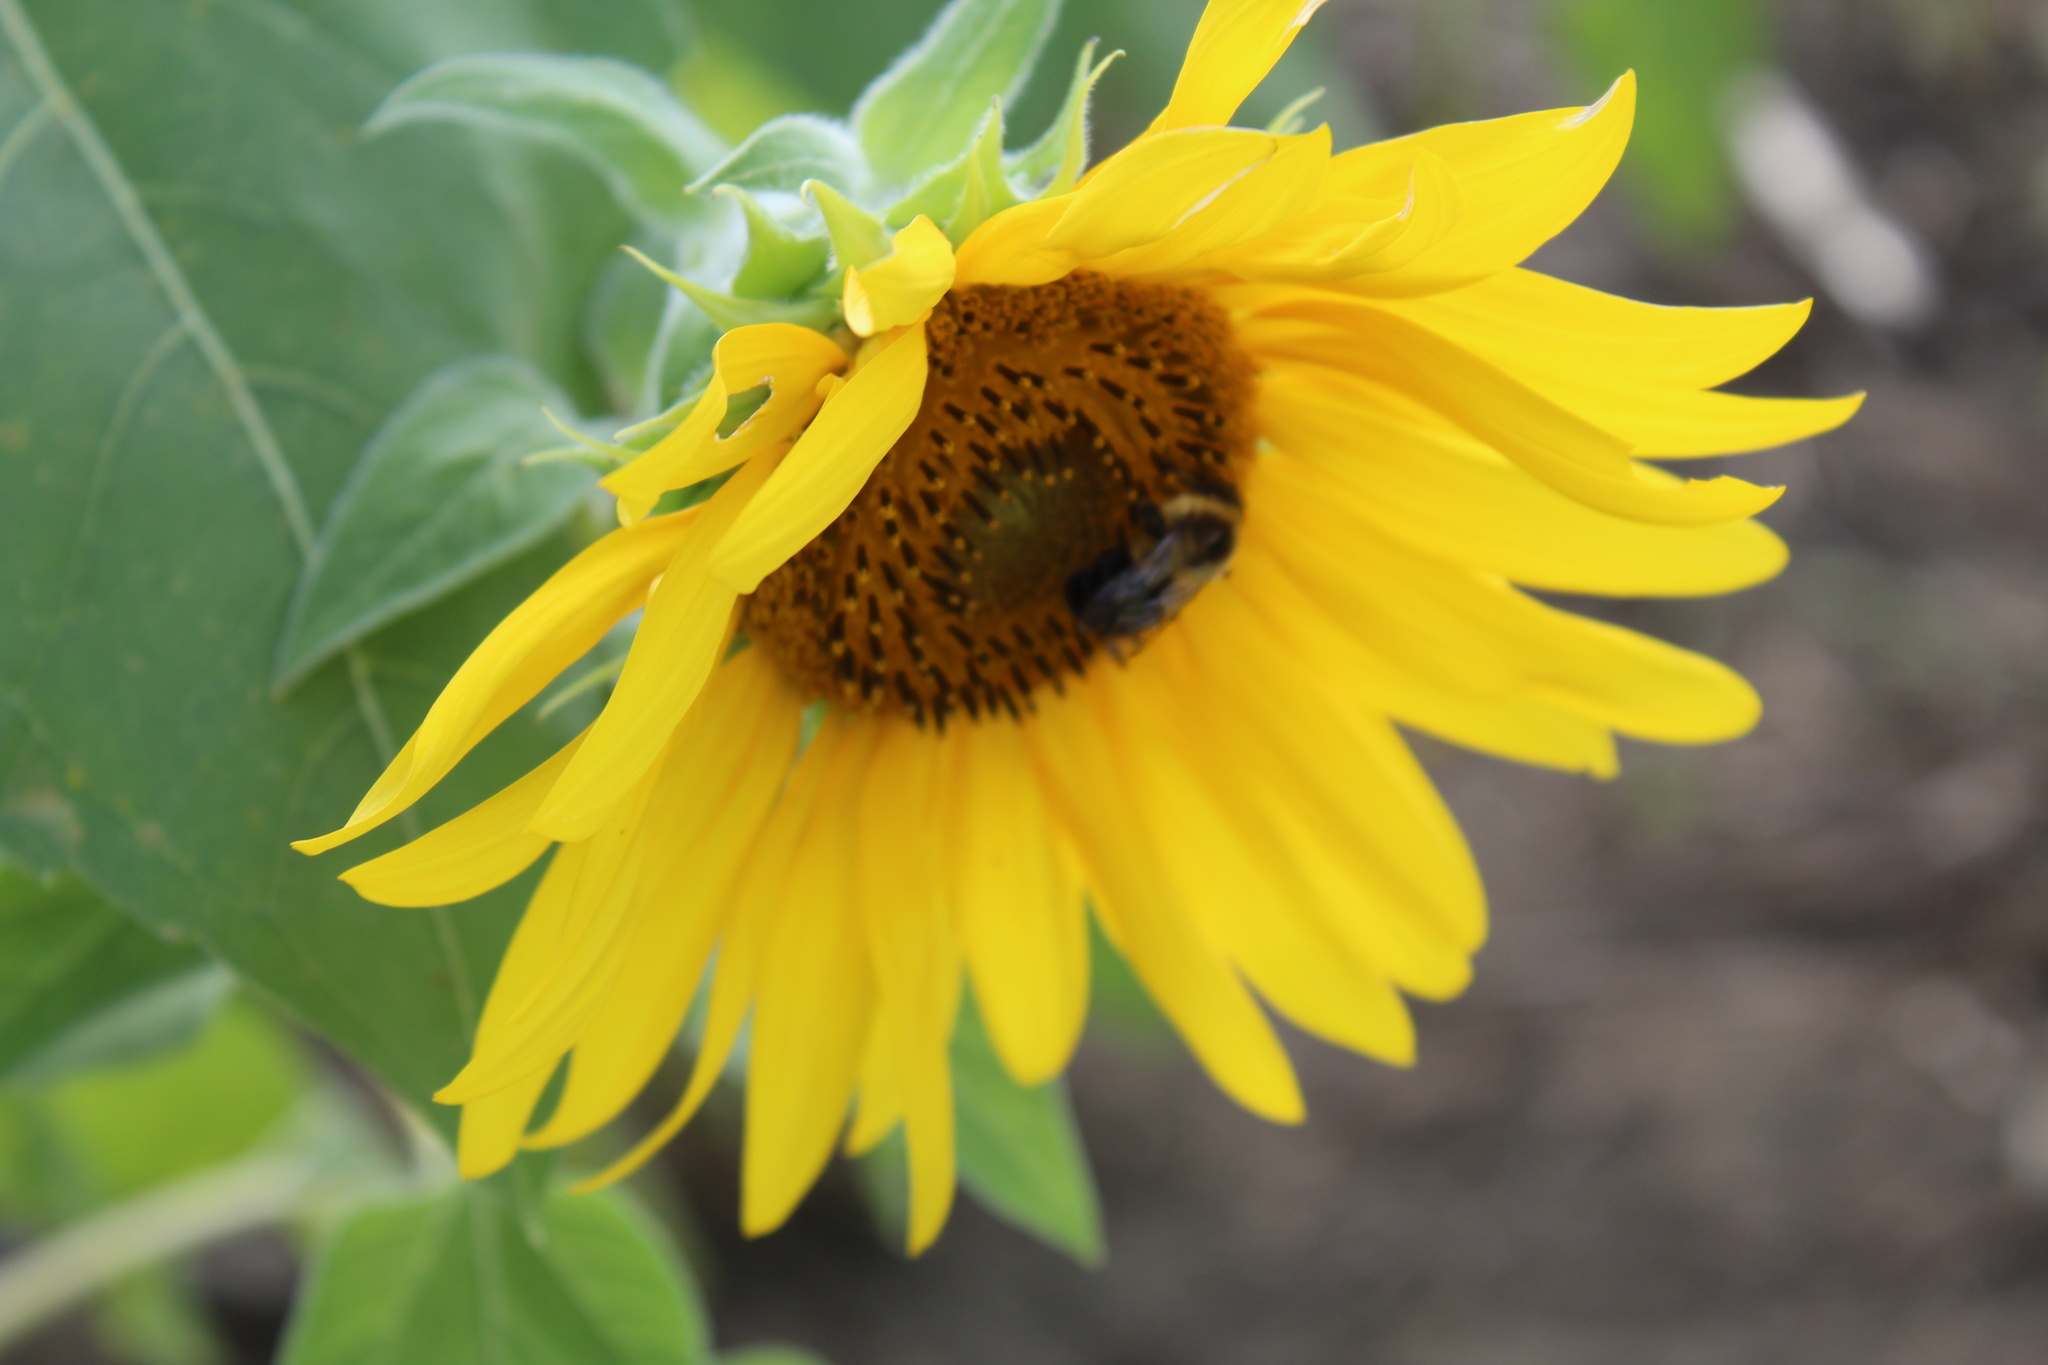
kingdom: Animalia
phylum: Arthropoda
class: Insecta
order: Hymenoptera
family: Apidae
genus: Bombus
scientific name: Bombus impatiens
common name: Common eastern bumble bee
